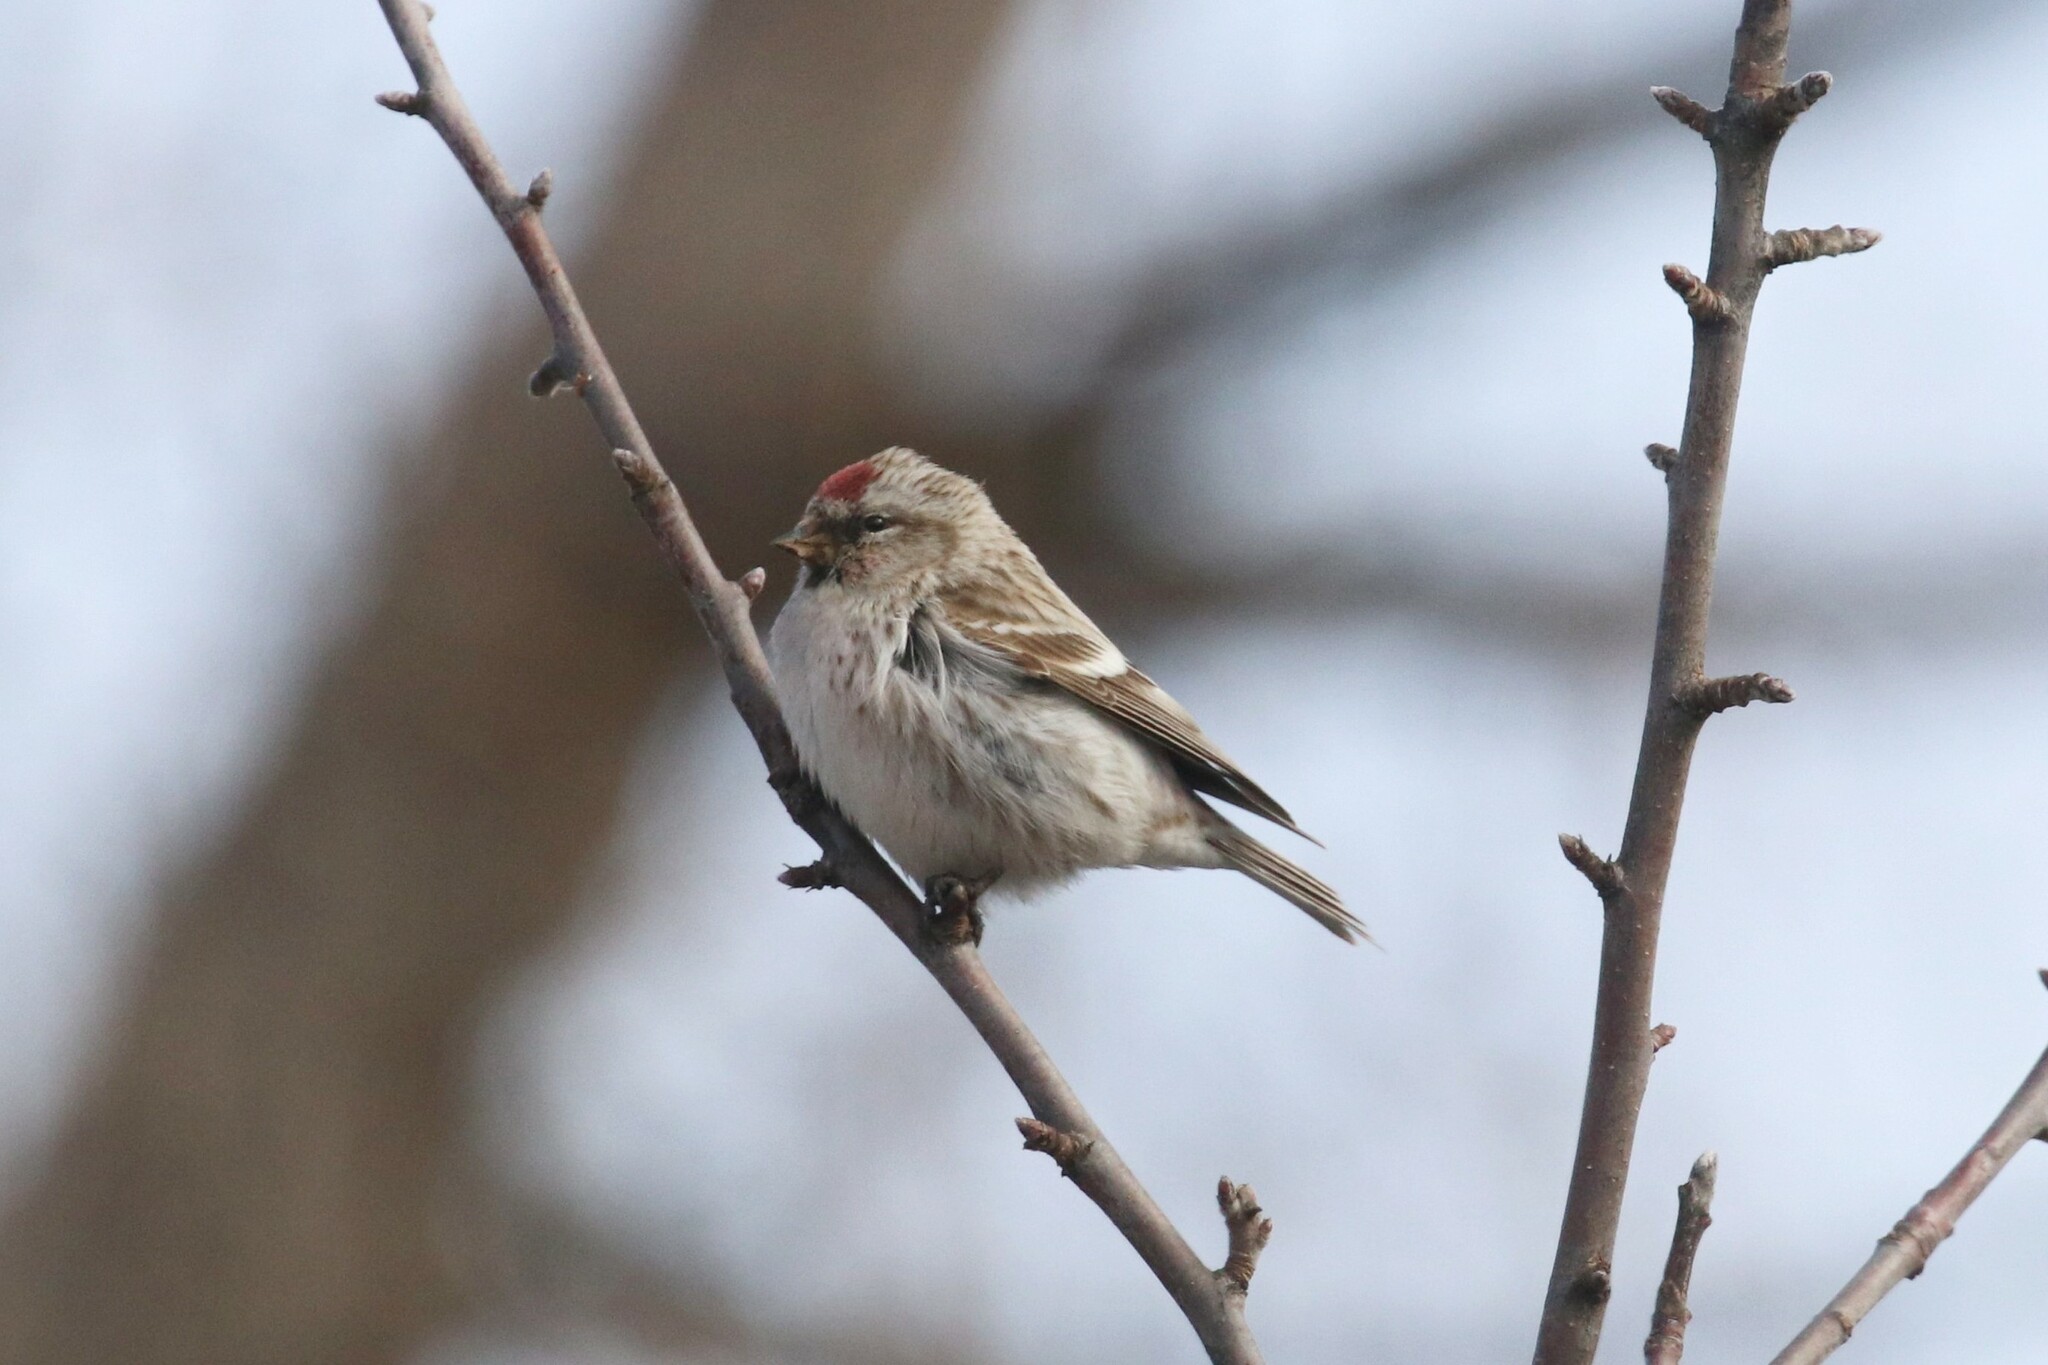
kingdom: Animalia
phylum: Chordata
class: Aves
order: Passeriformes
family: Fringillidae
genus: Acanthis
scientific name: Acanthis flammea
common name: Common redpoll
